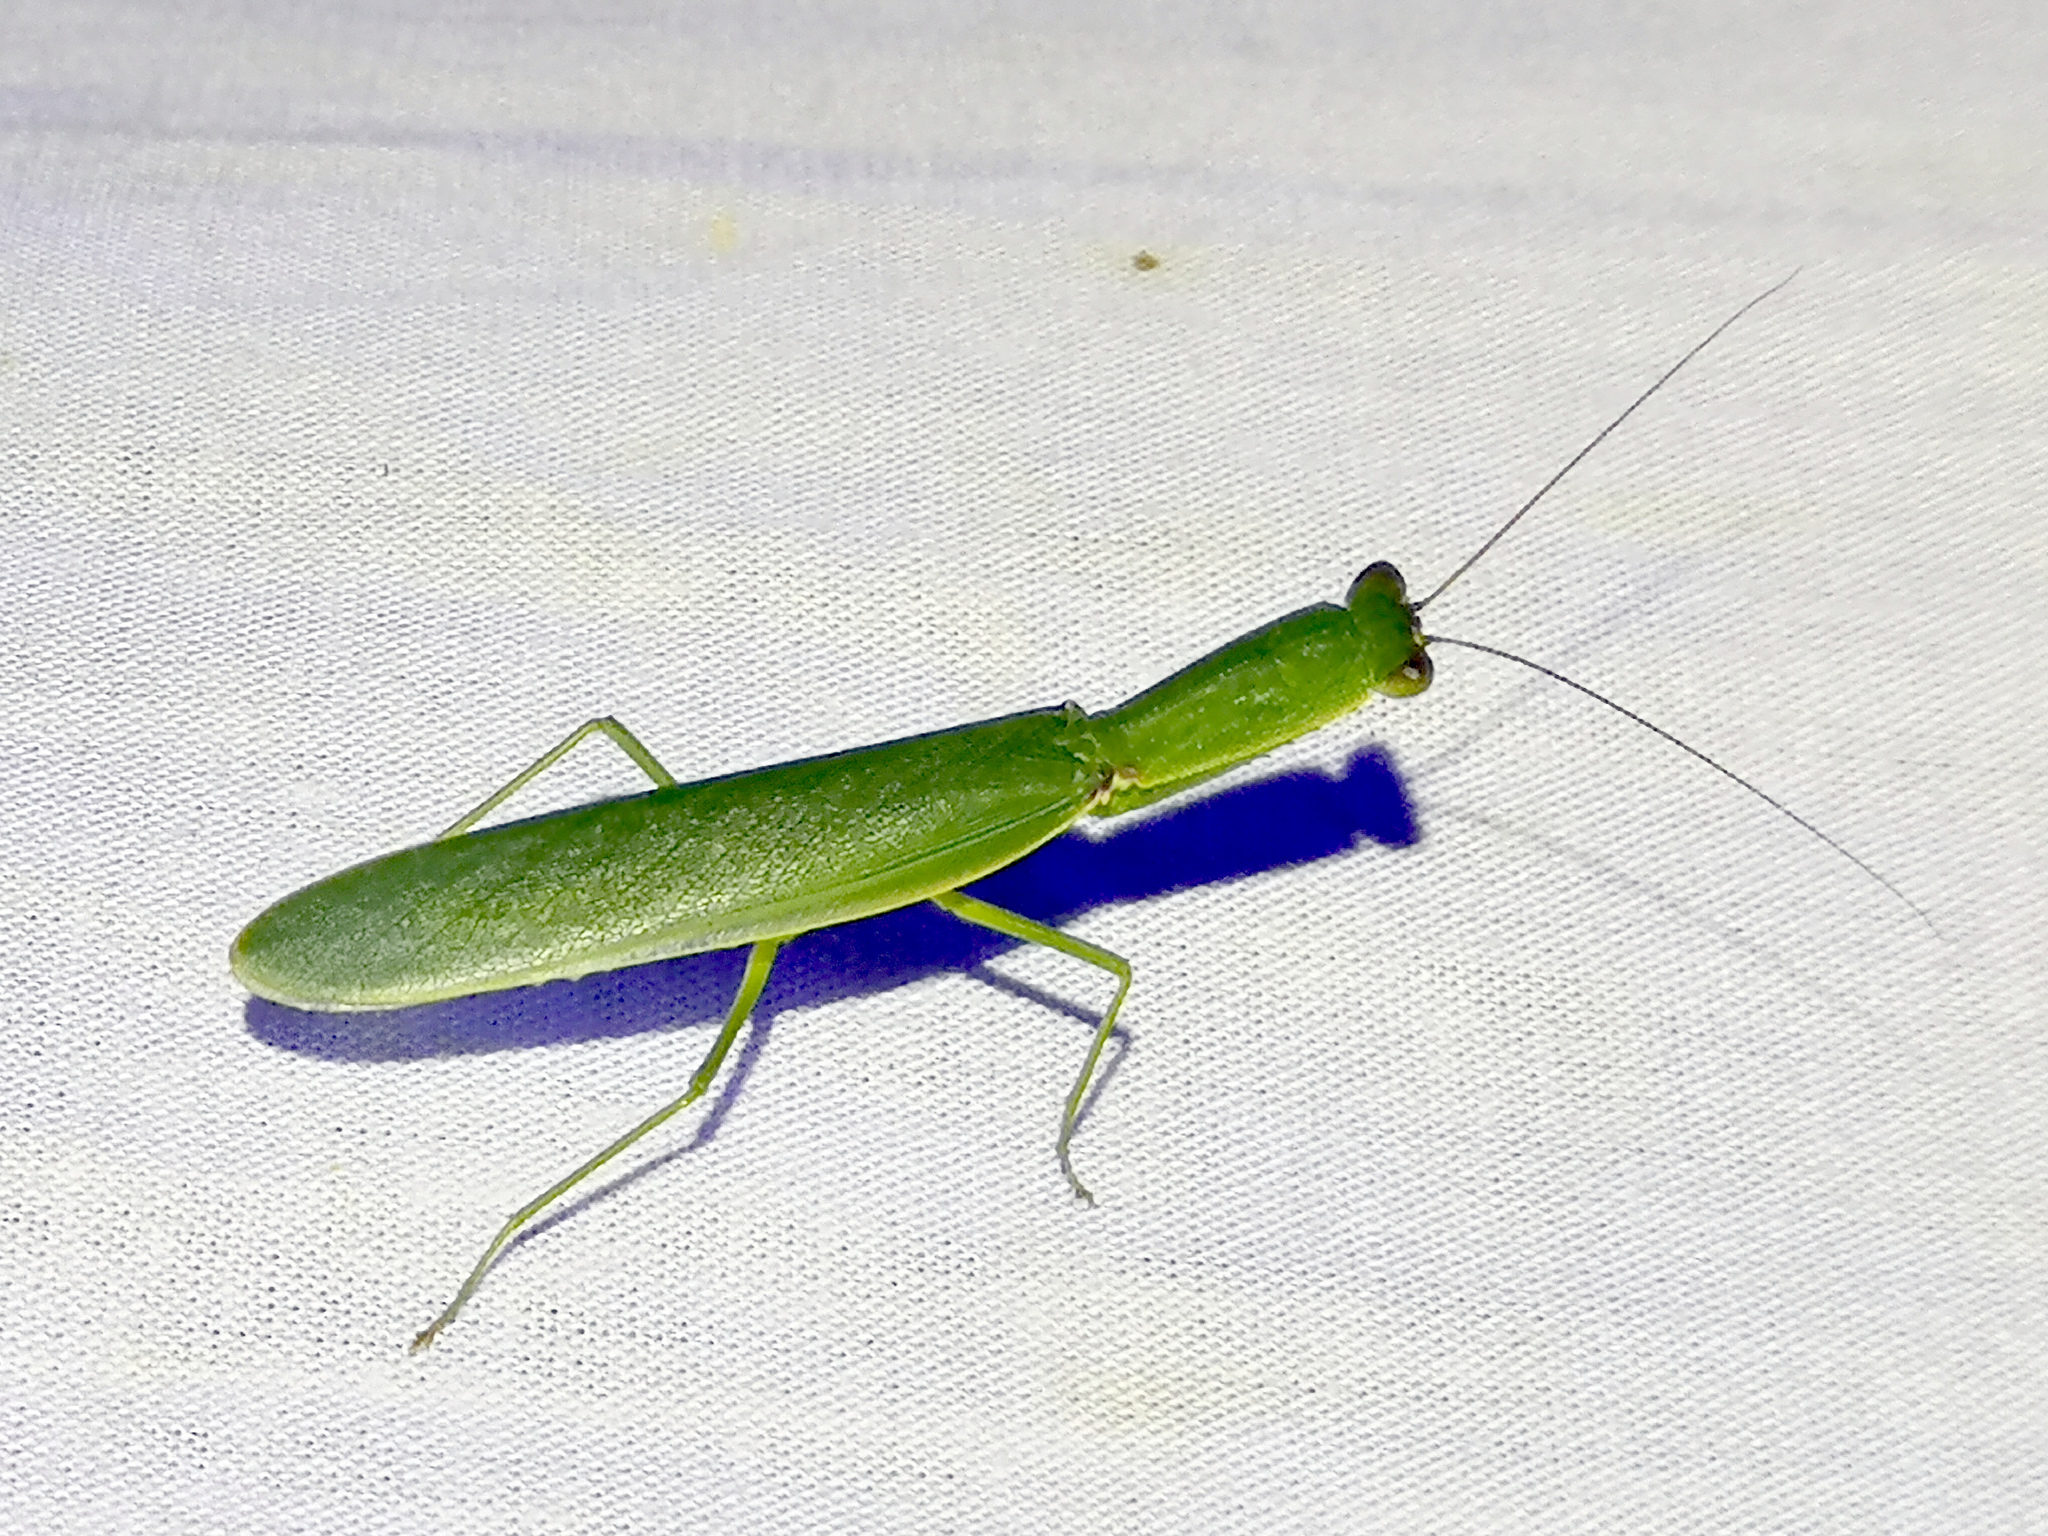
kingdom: Animalia
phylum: Arthropoda
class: Insecta
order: Mantodea
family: Mantidae
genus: Orthodera
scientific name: Orthodera ministralis
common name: Mantis
